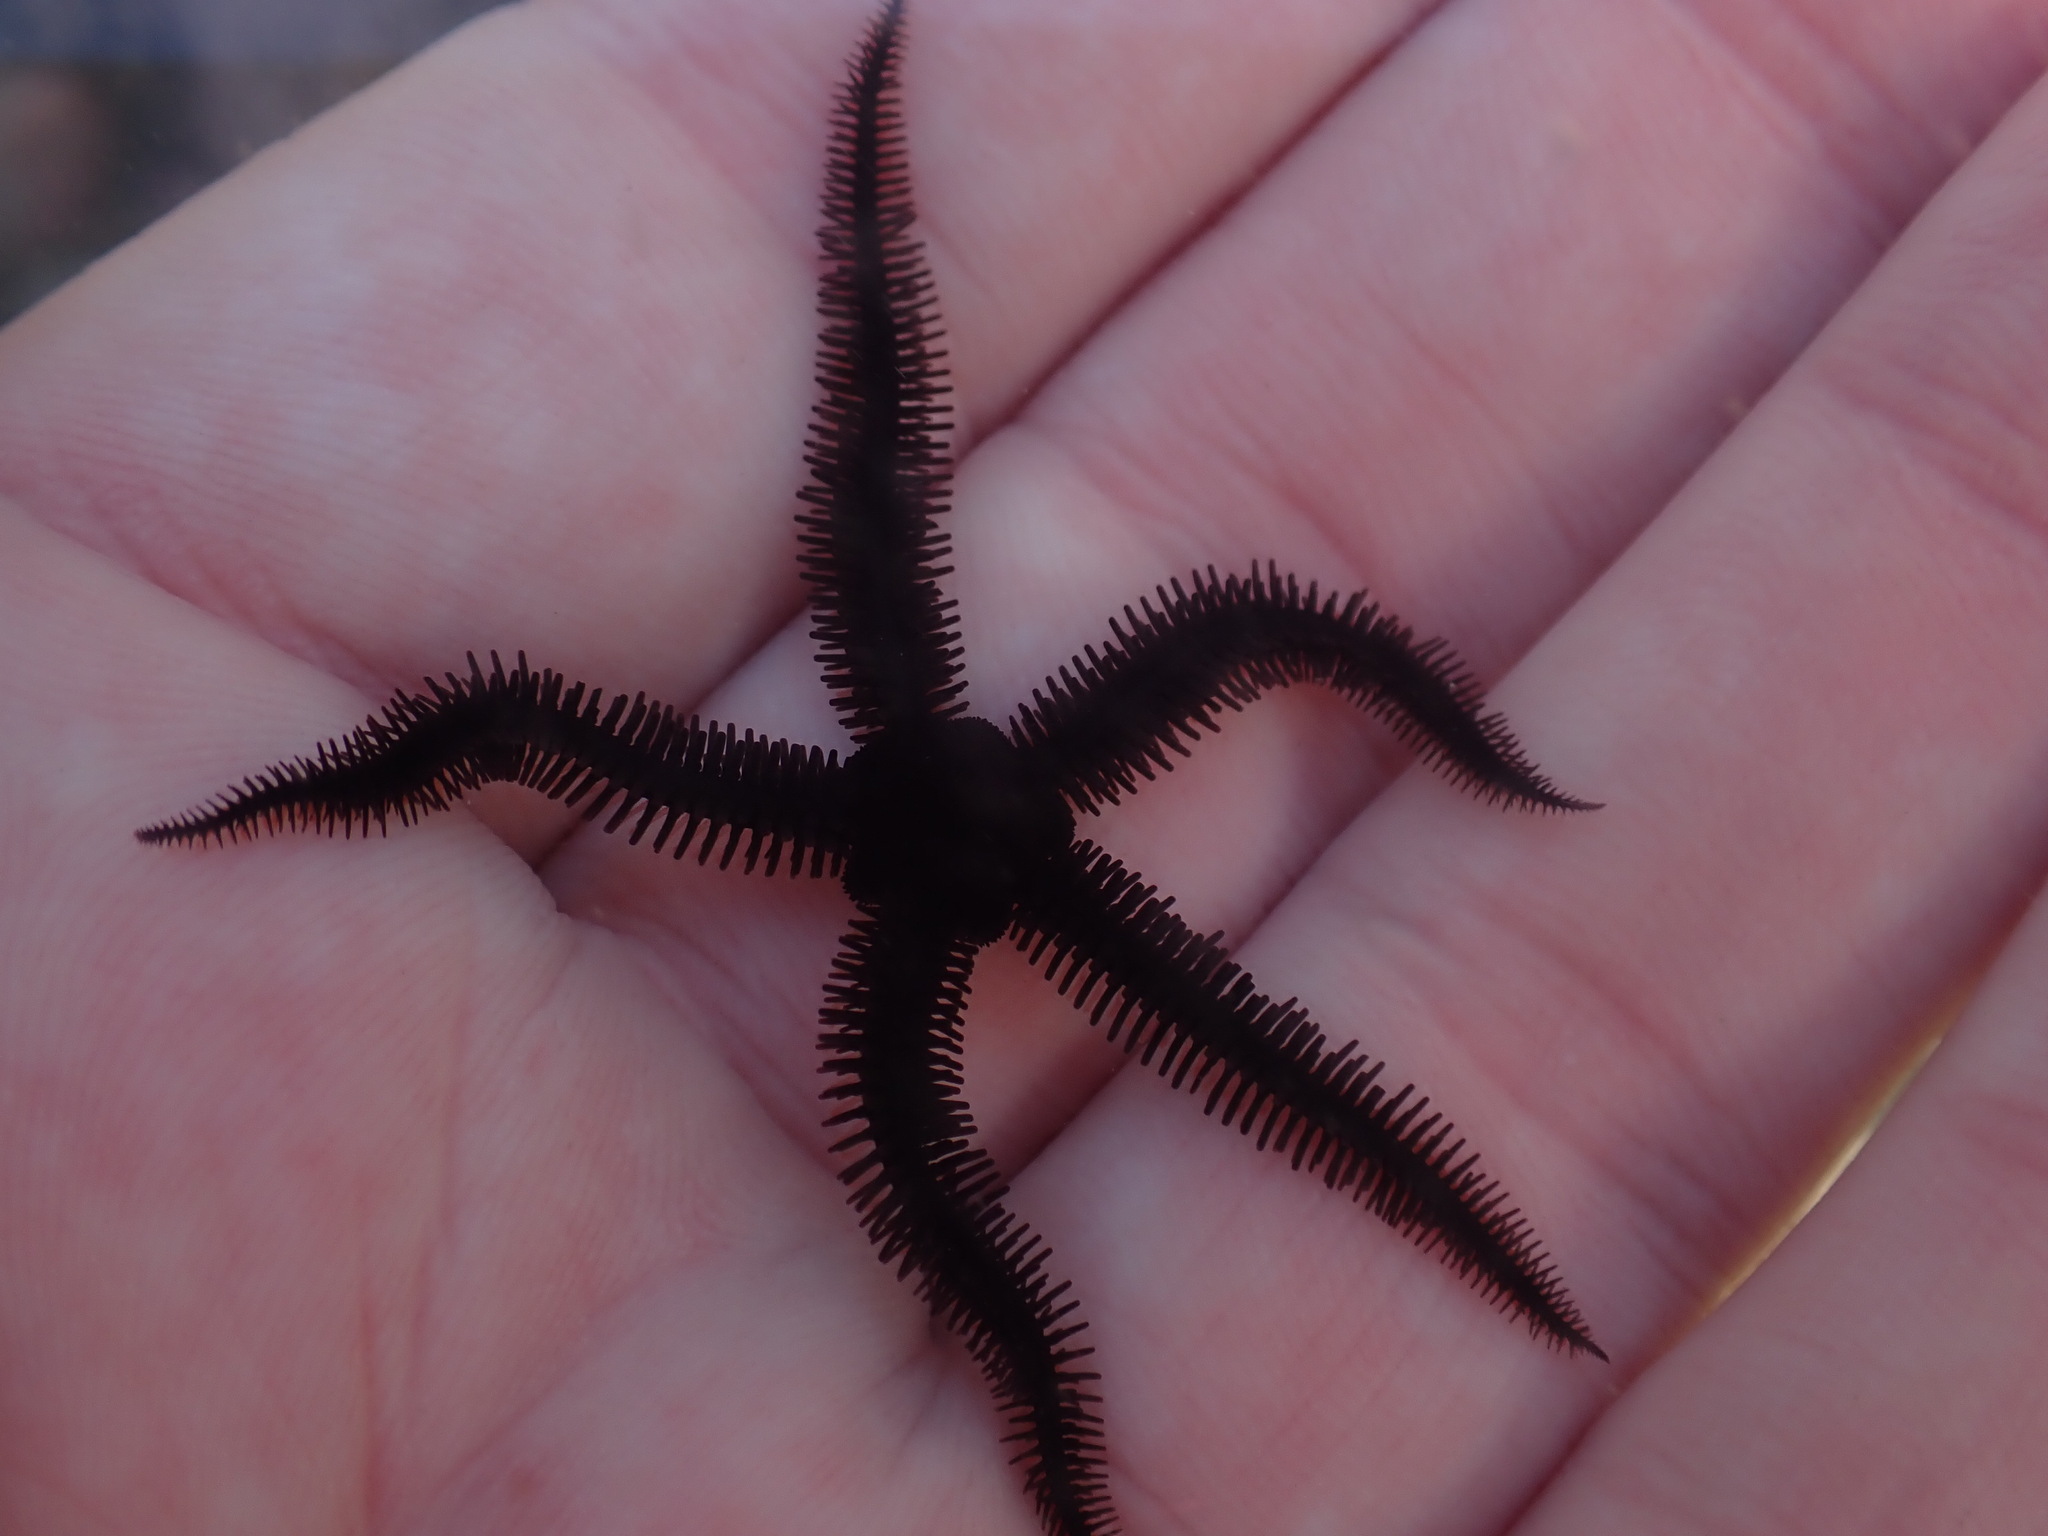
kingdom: Animalia
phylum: Echinodermata
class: Ophiuroidea
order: Ophiacanthida
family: Ophiopteridae
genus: Ophiopteris
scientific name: Ophiopteris antipodum
